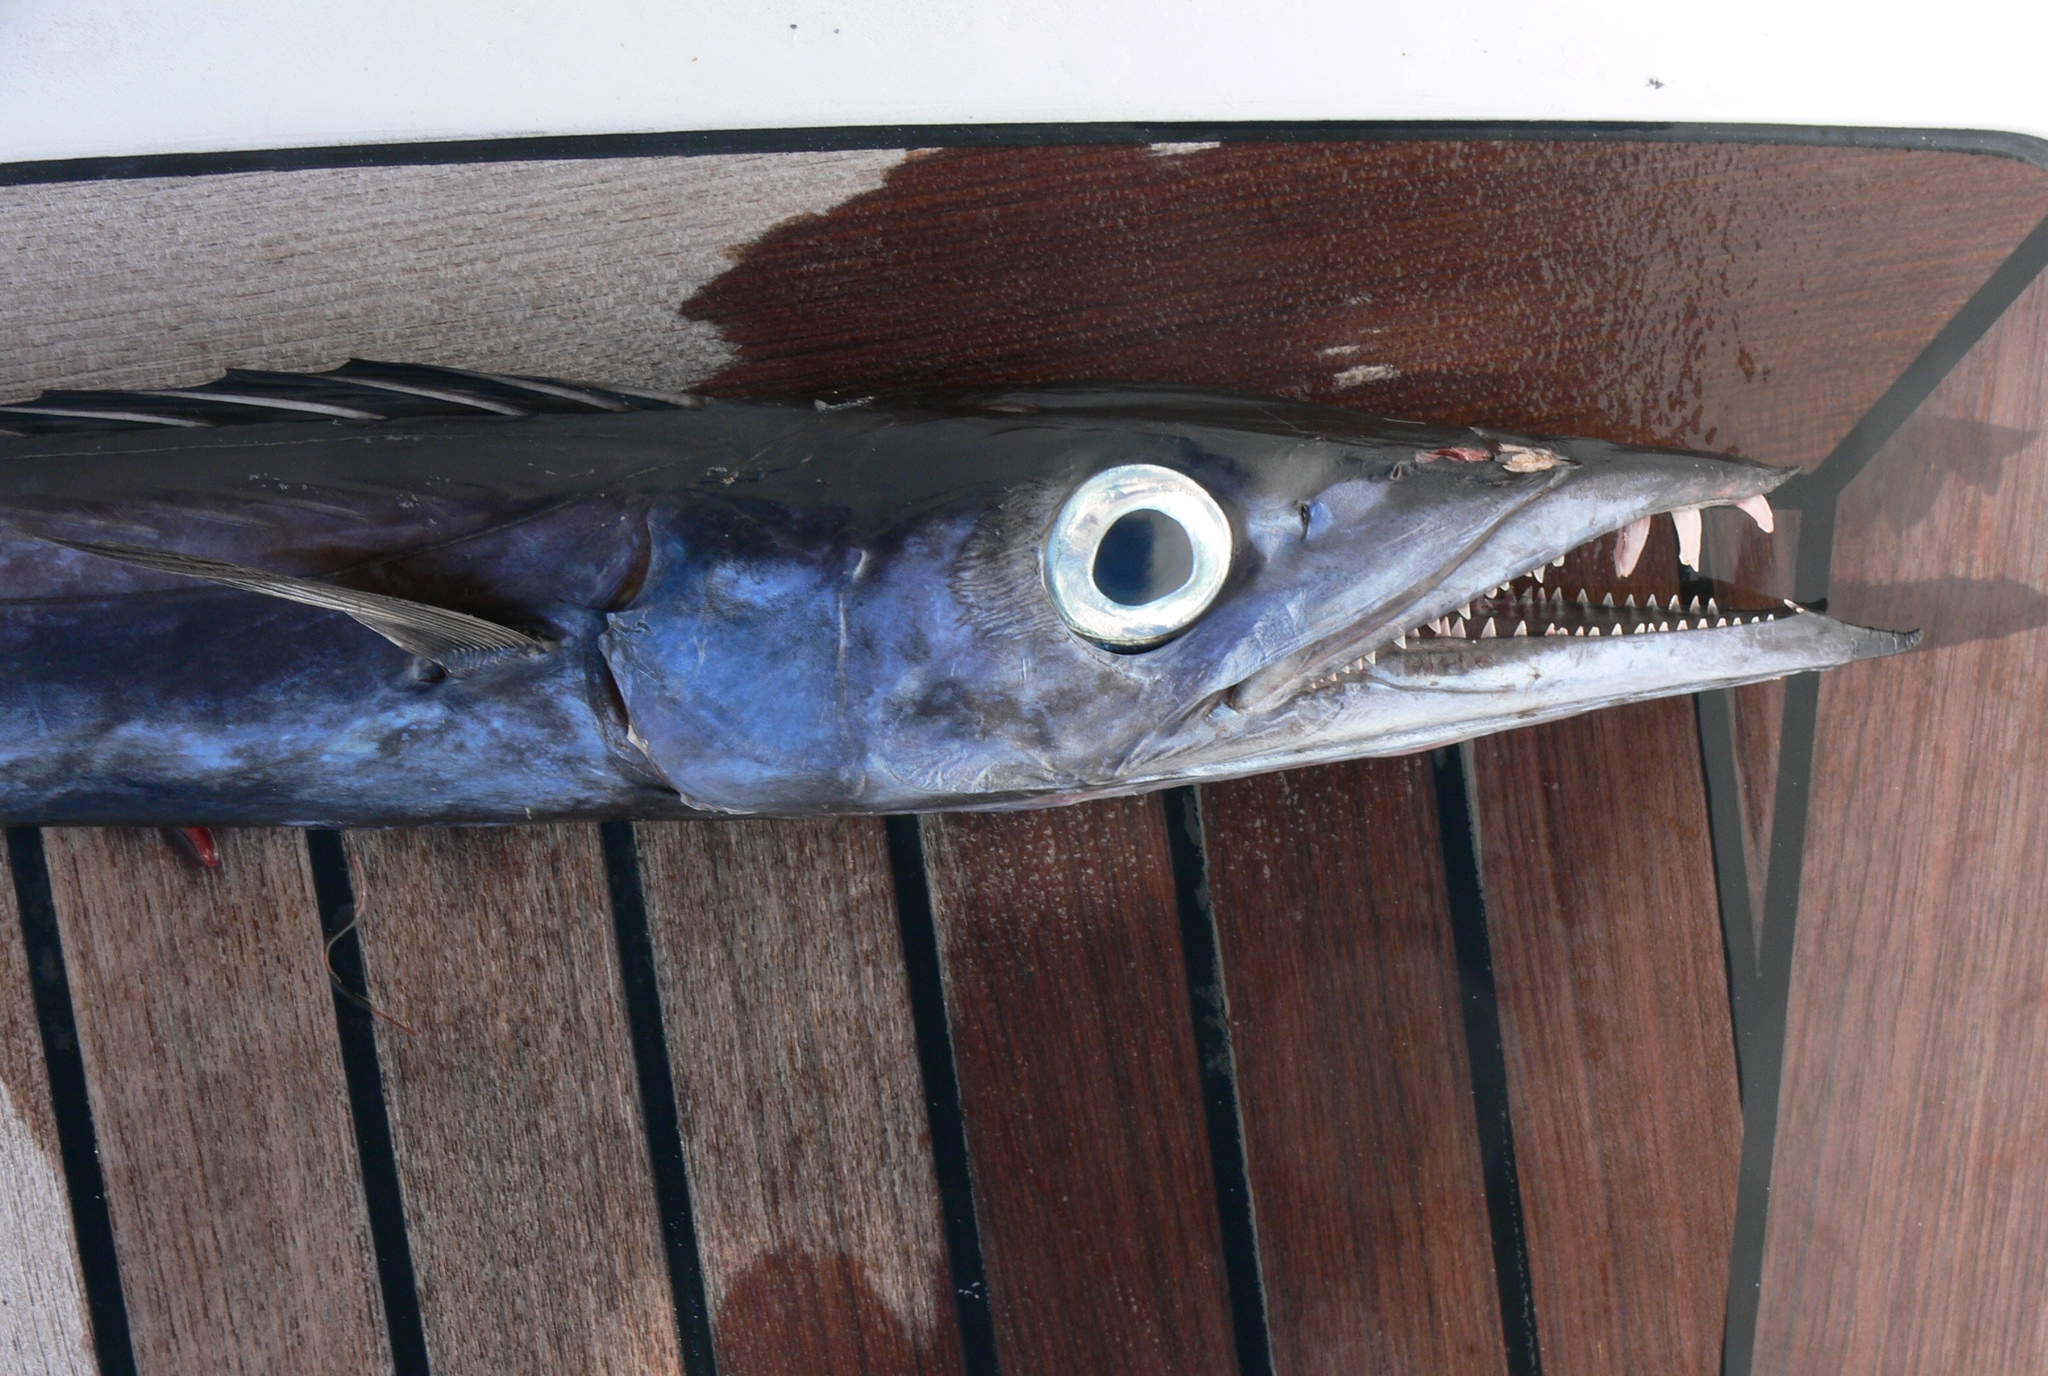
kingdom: Animalia
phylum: Chordata
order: Perciformes
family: Gempylidae
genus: Gempylus
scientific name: Gempylus serpens
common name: Snake mackerel
